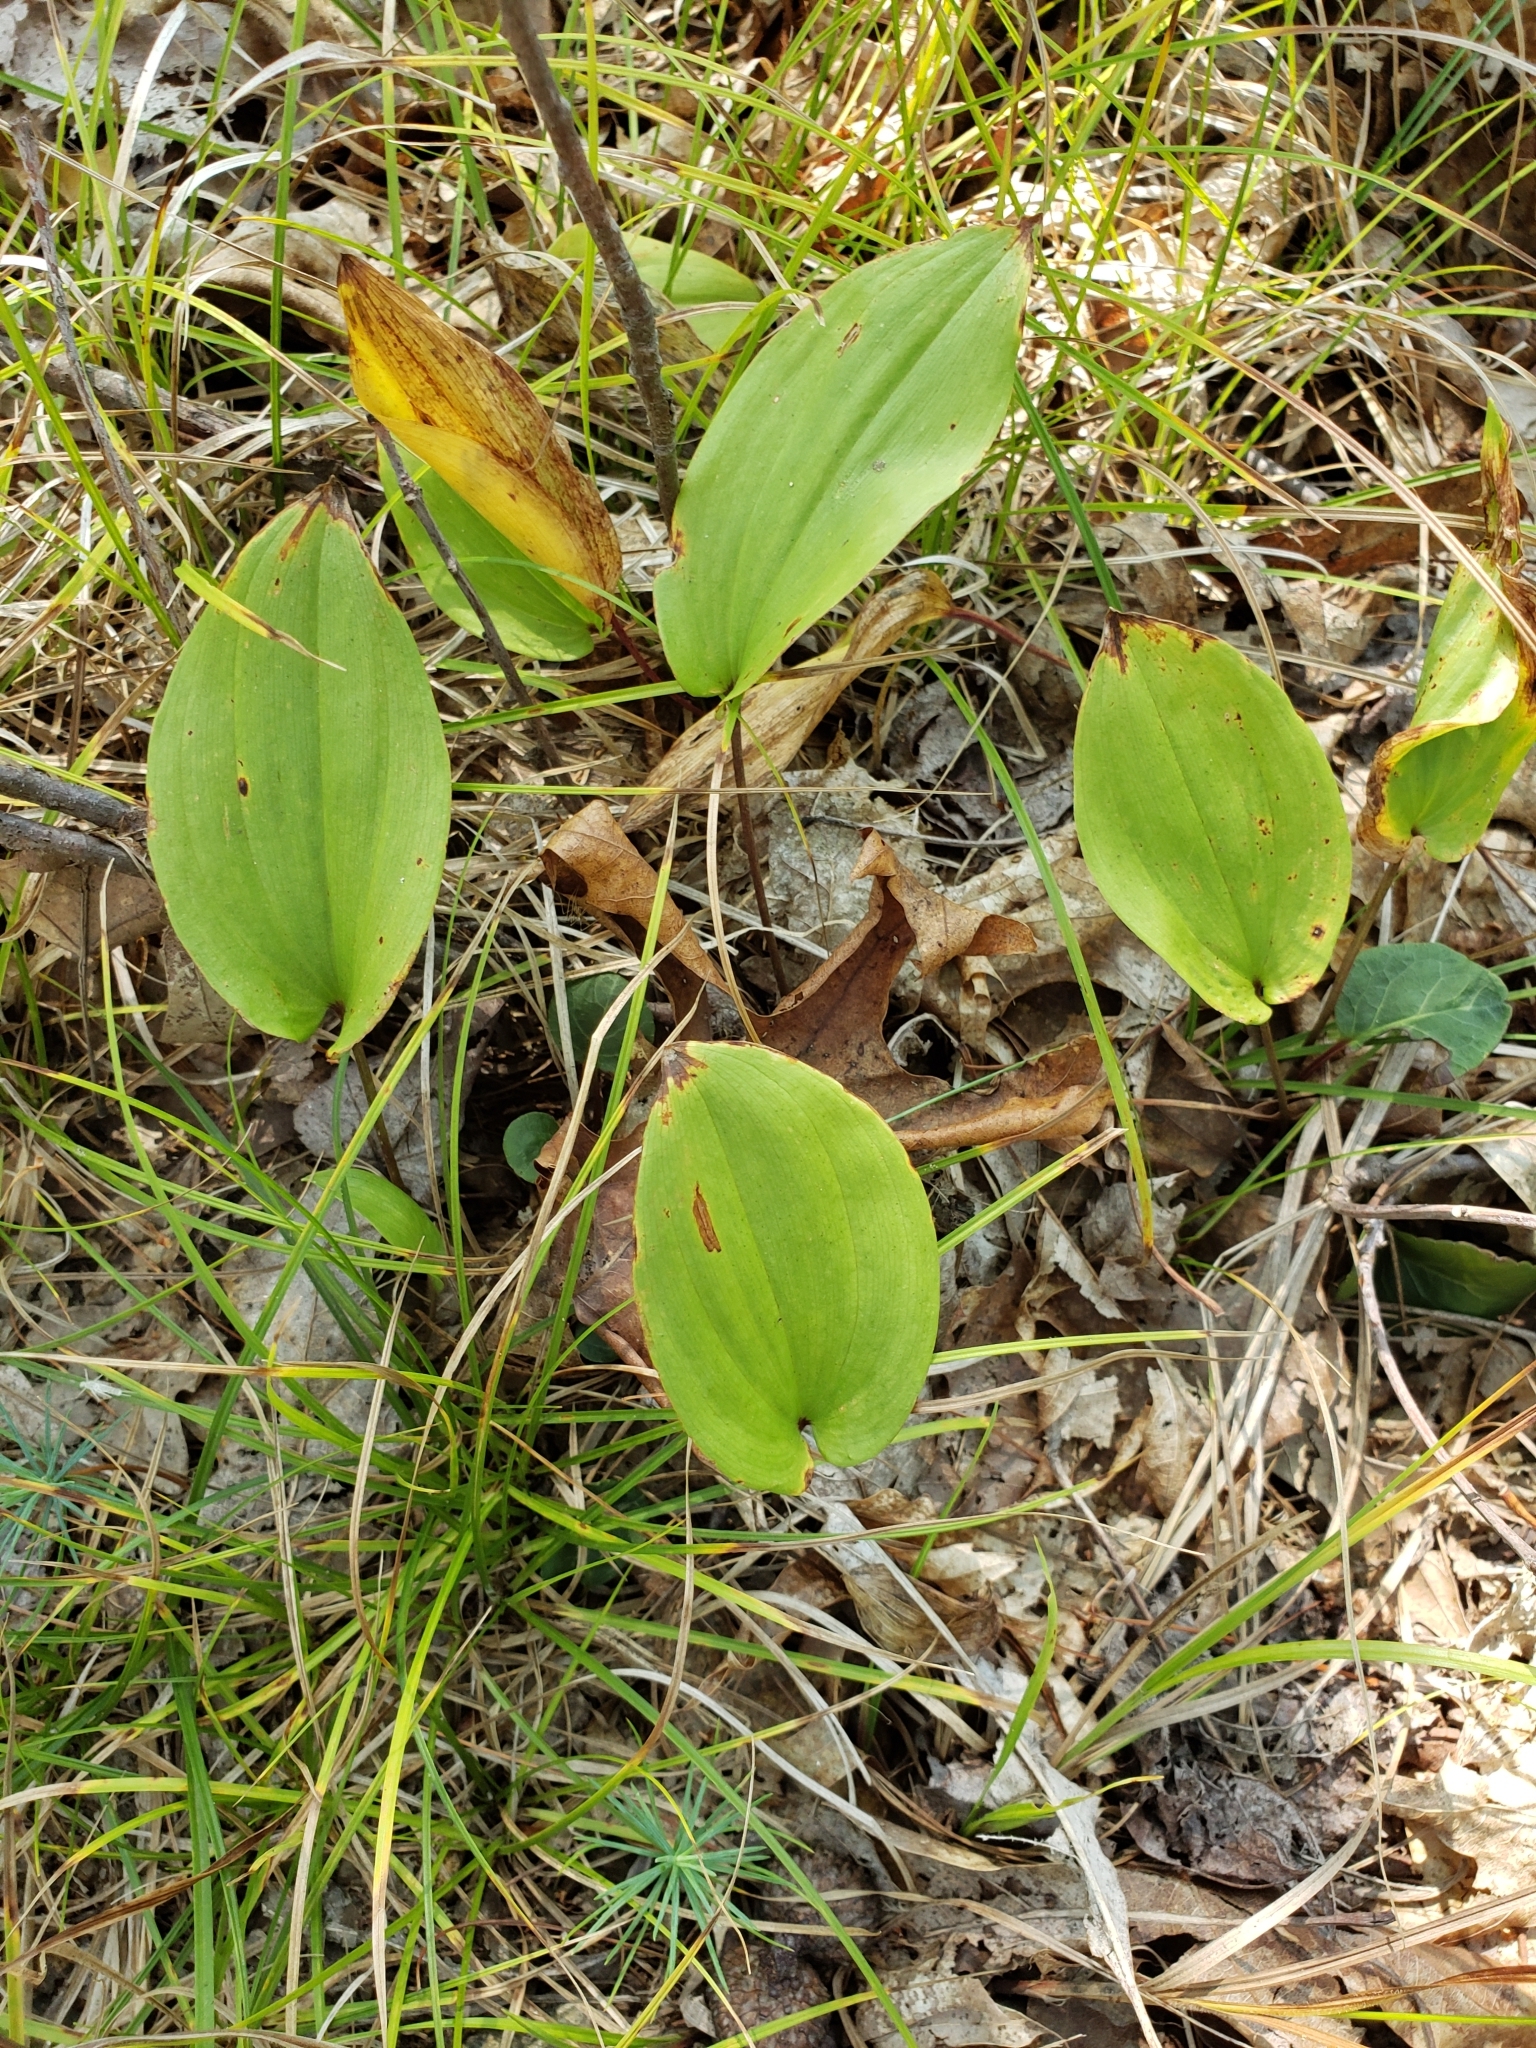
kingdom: Plantae
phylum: Tracheophyta
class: Liliopsida
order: Asparagales
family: Asparagaceae
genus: Maianthemum
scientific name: Maianthemum canadense
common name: False lily-of-the-valley
